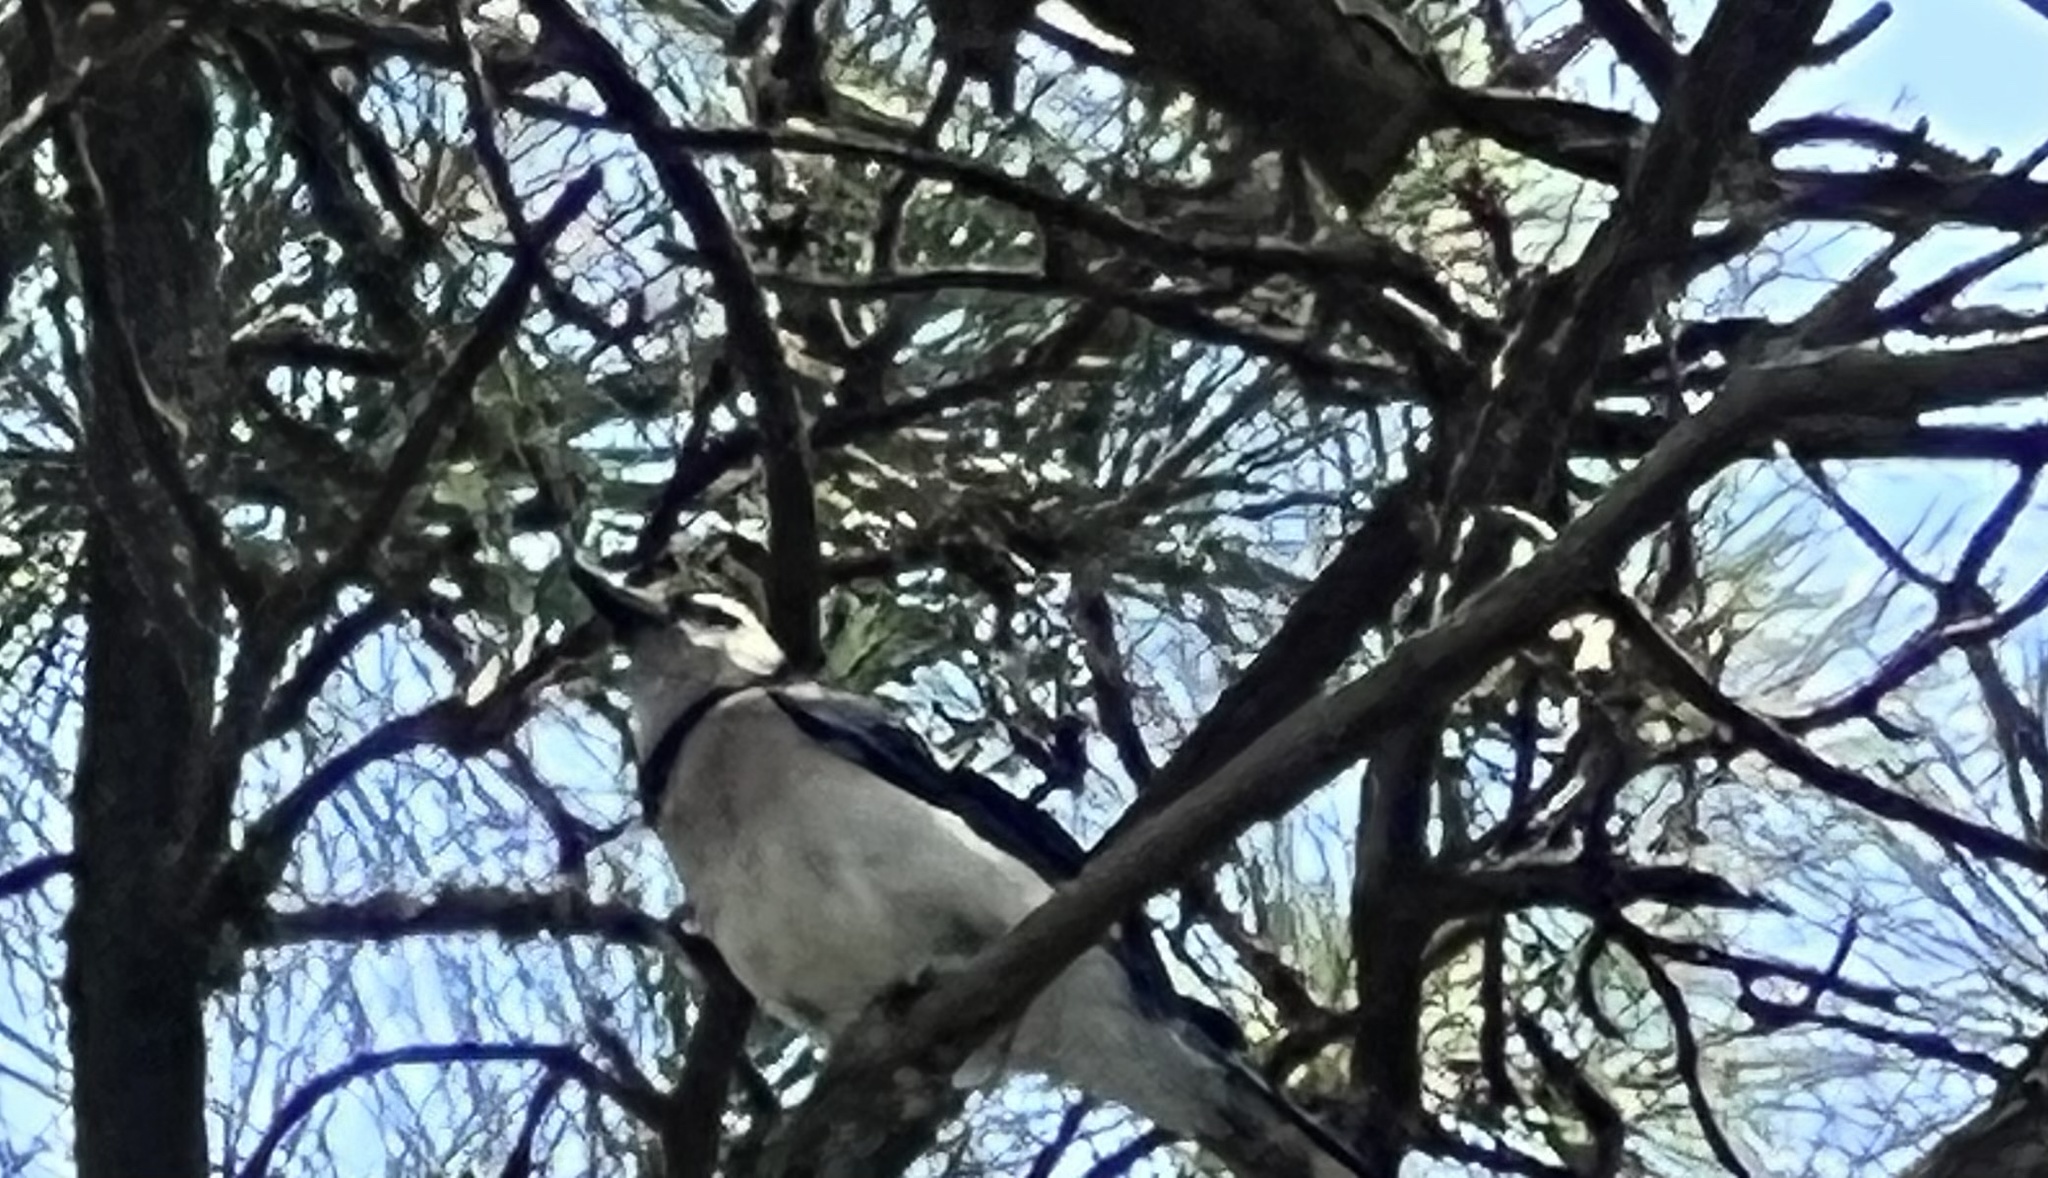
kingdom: Animalia
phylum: Chordata
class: Aves
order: Passeriformes
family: Corvidae
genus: Cyanocitta
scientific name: Cyanocitta cristata
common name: Blue jay
